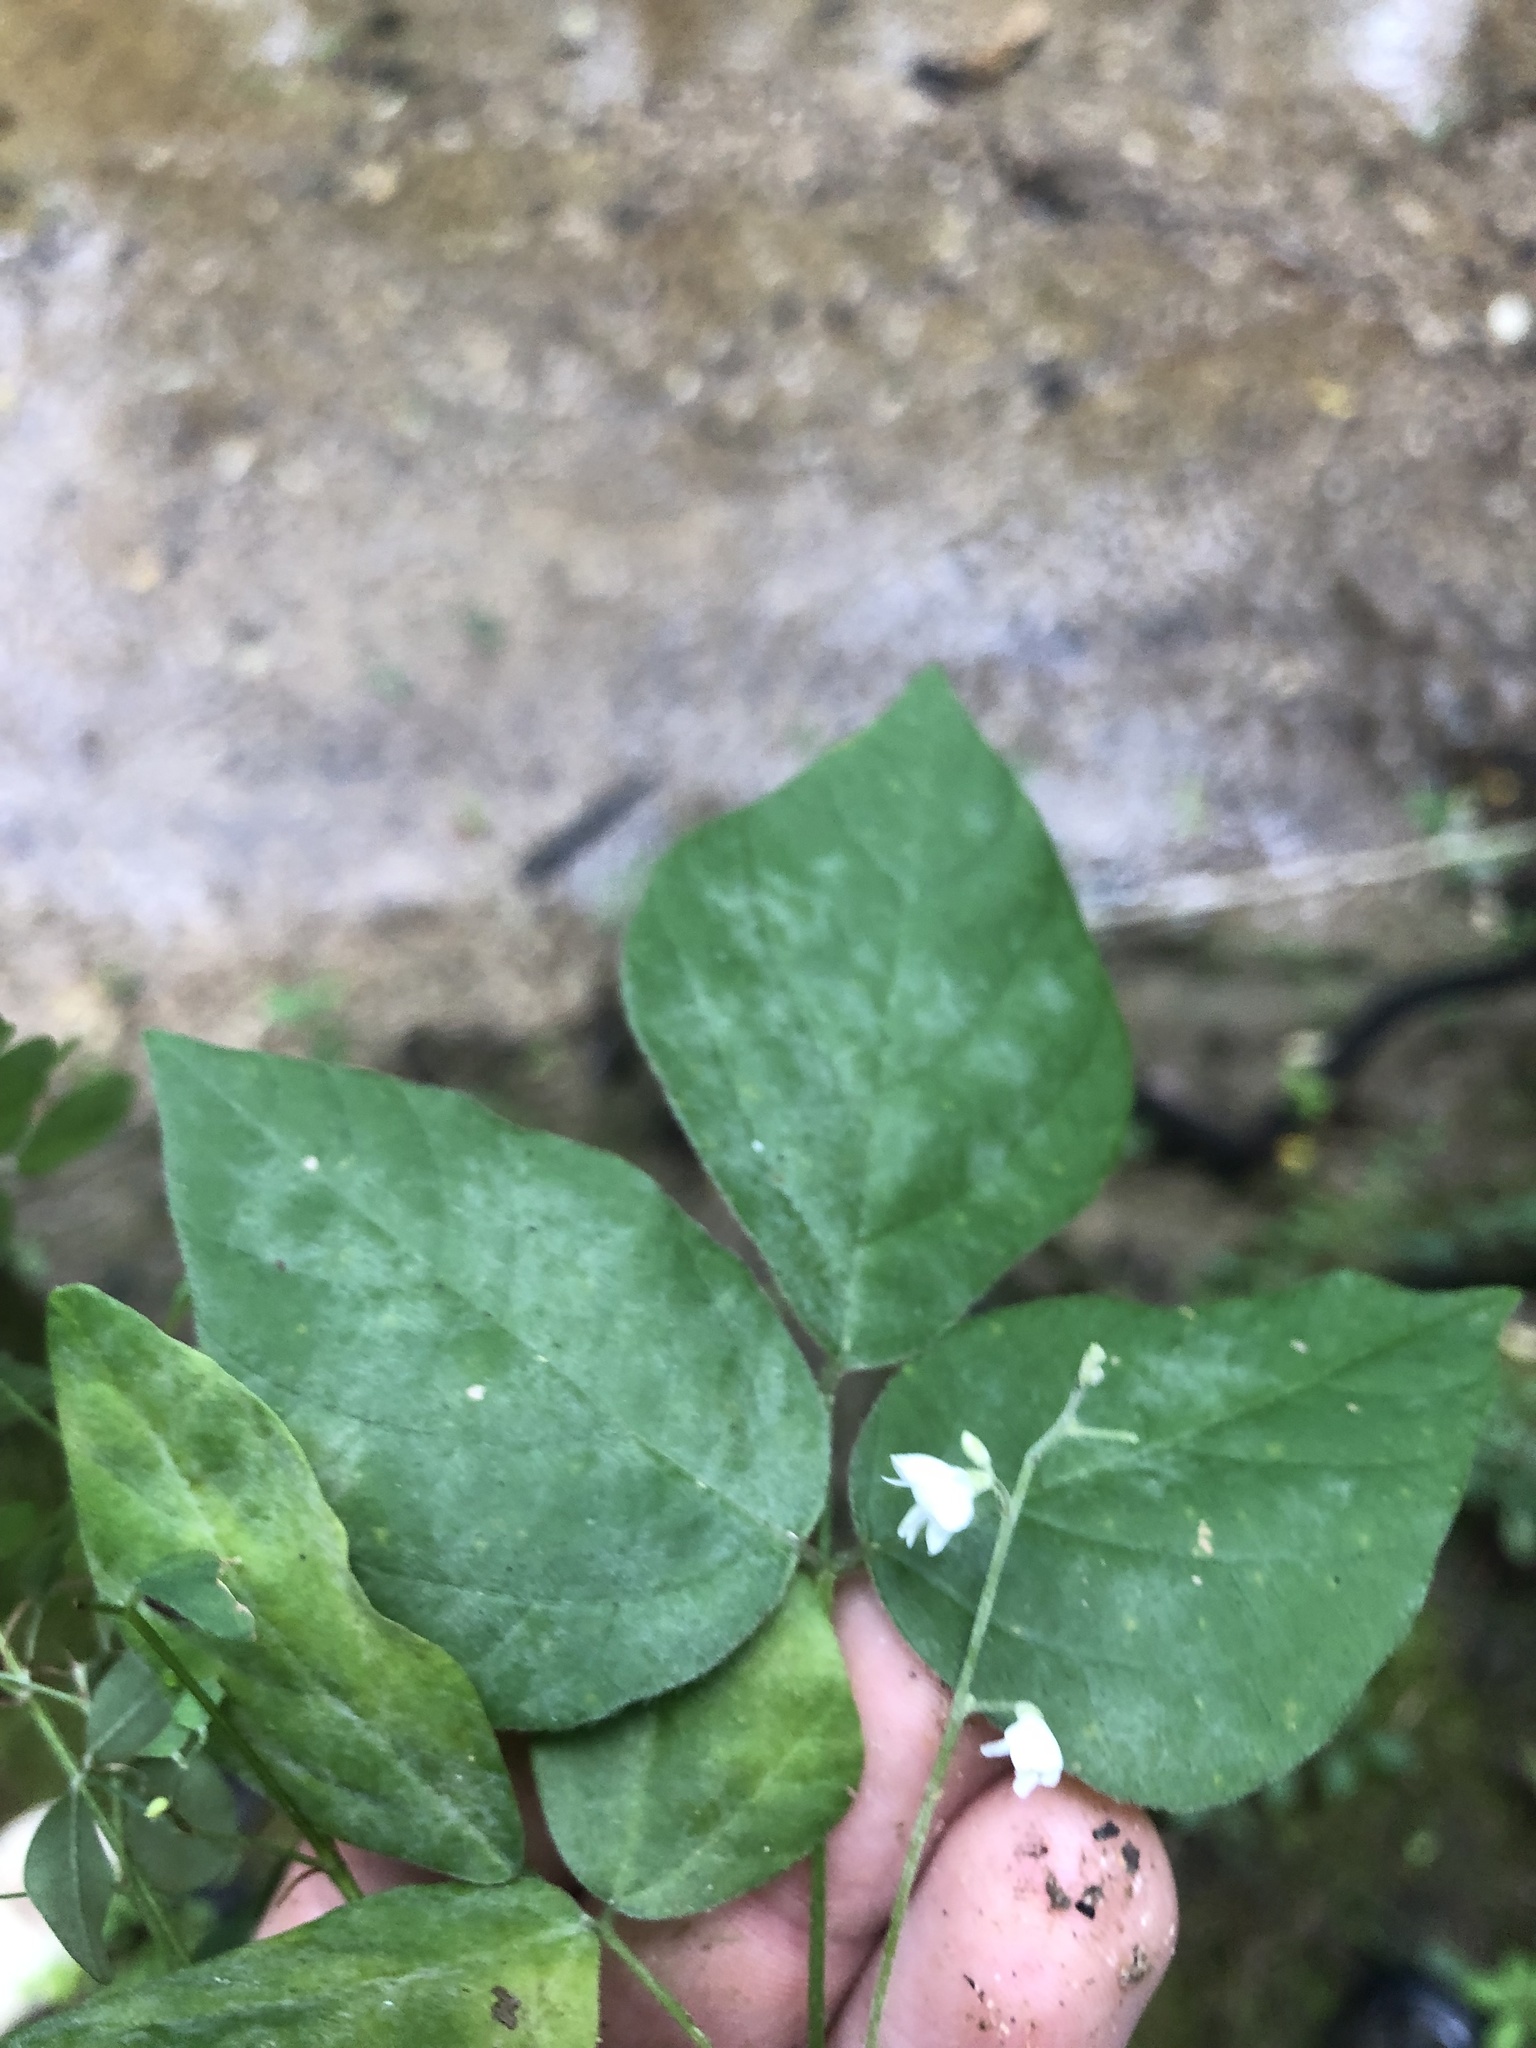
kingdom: Plantae
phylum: Tracheophyta
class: Magnoliopsida
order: Fabales
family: Fabaceae
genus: Hylodesmum
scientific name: Hylodesmum pauciflorum
